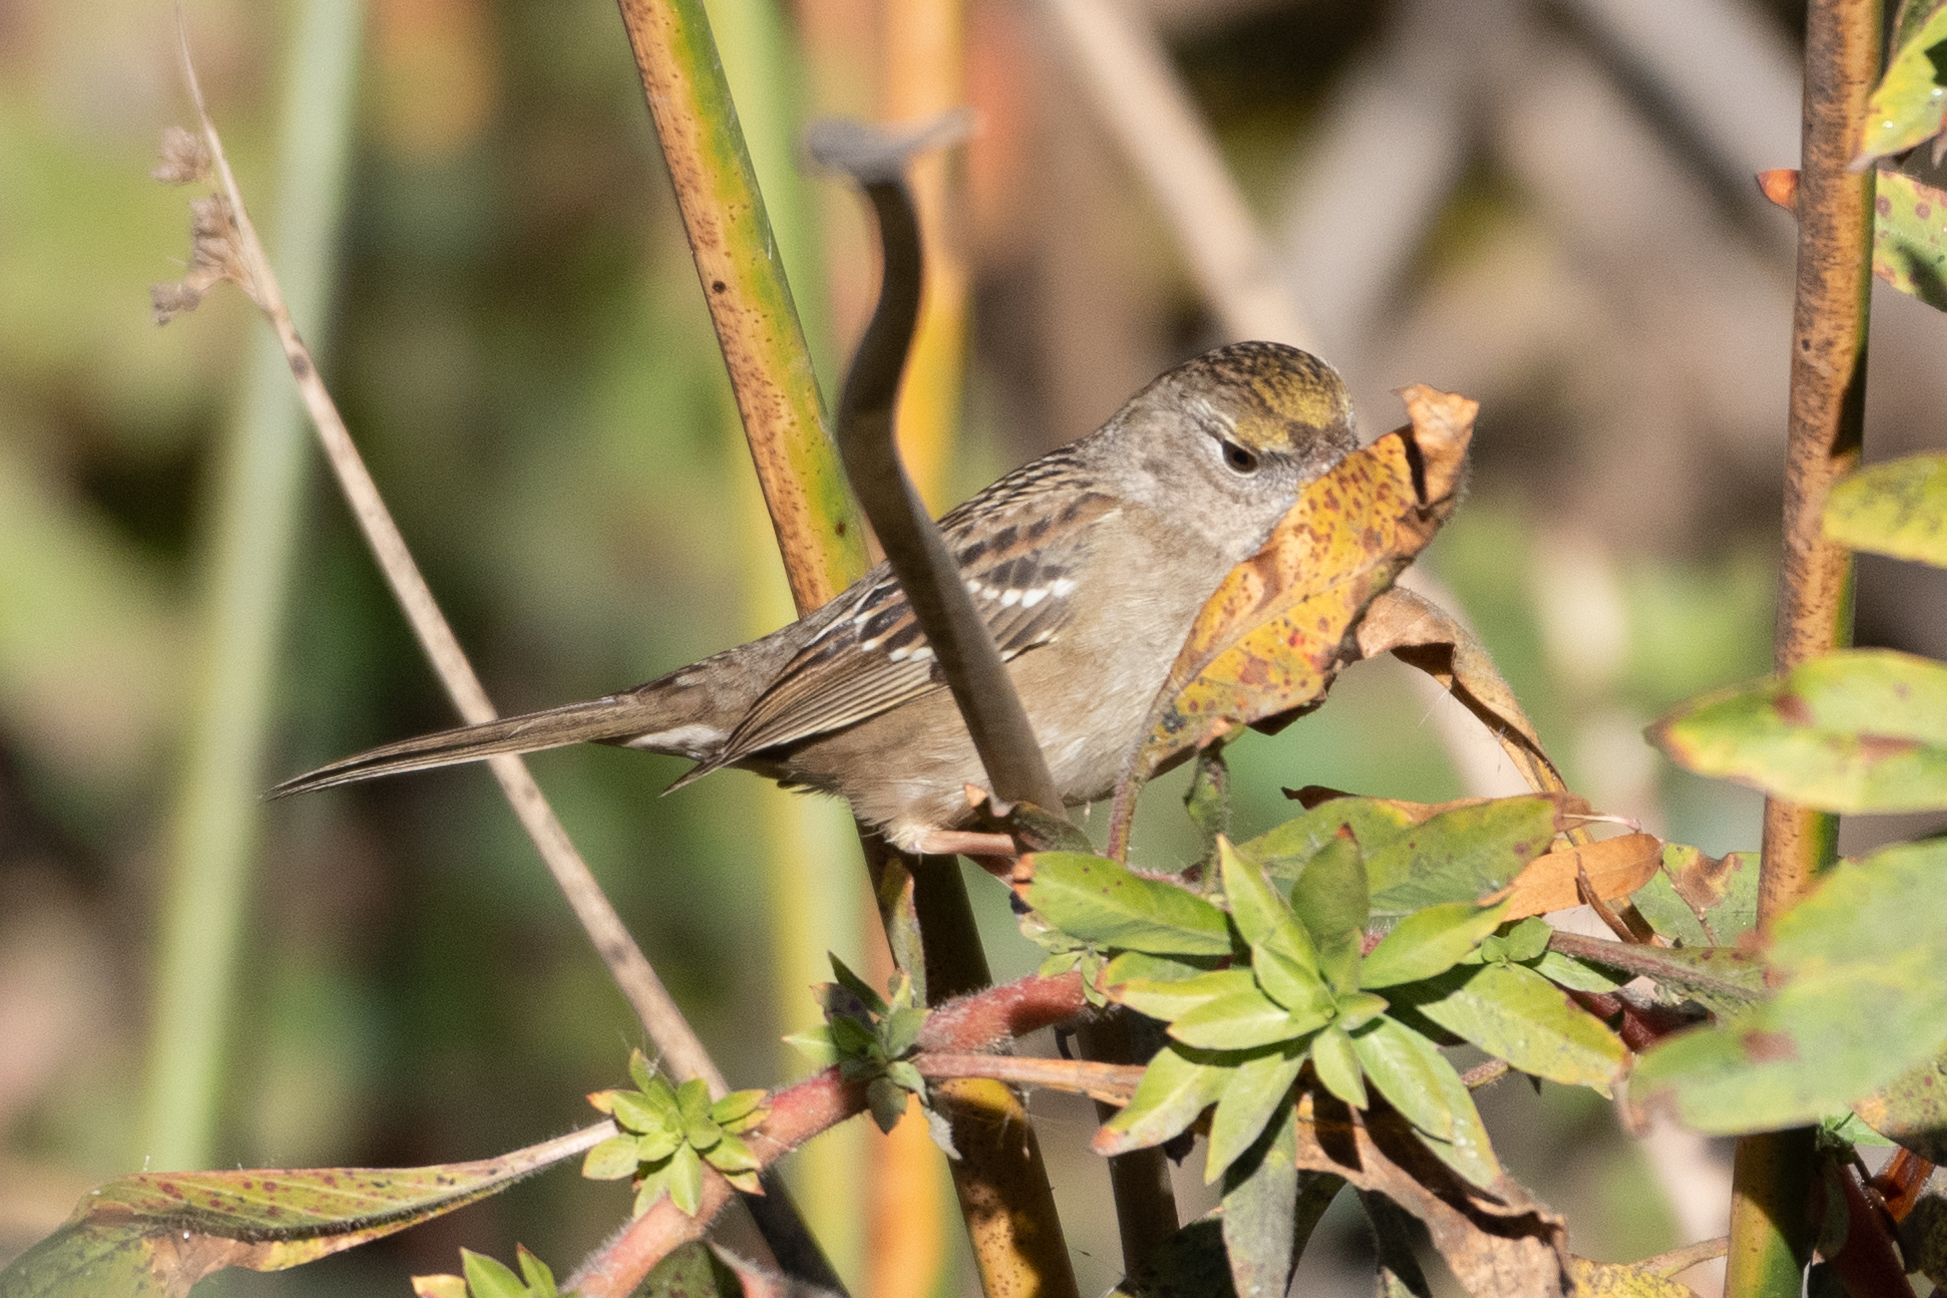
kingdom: Animalia
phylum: Chordata
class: Aves
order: Passeriformes
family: Passerellidae
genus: Zonotrichia
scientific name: Zonotrichia atricapilla
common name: Golden-crowned sparrow
